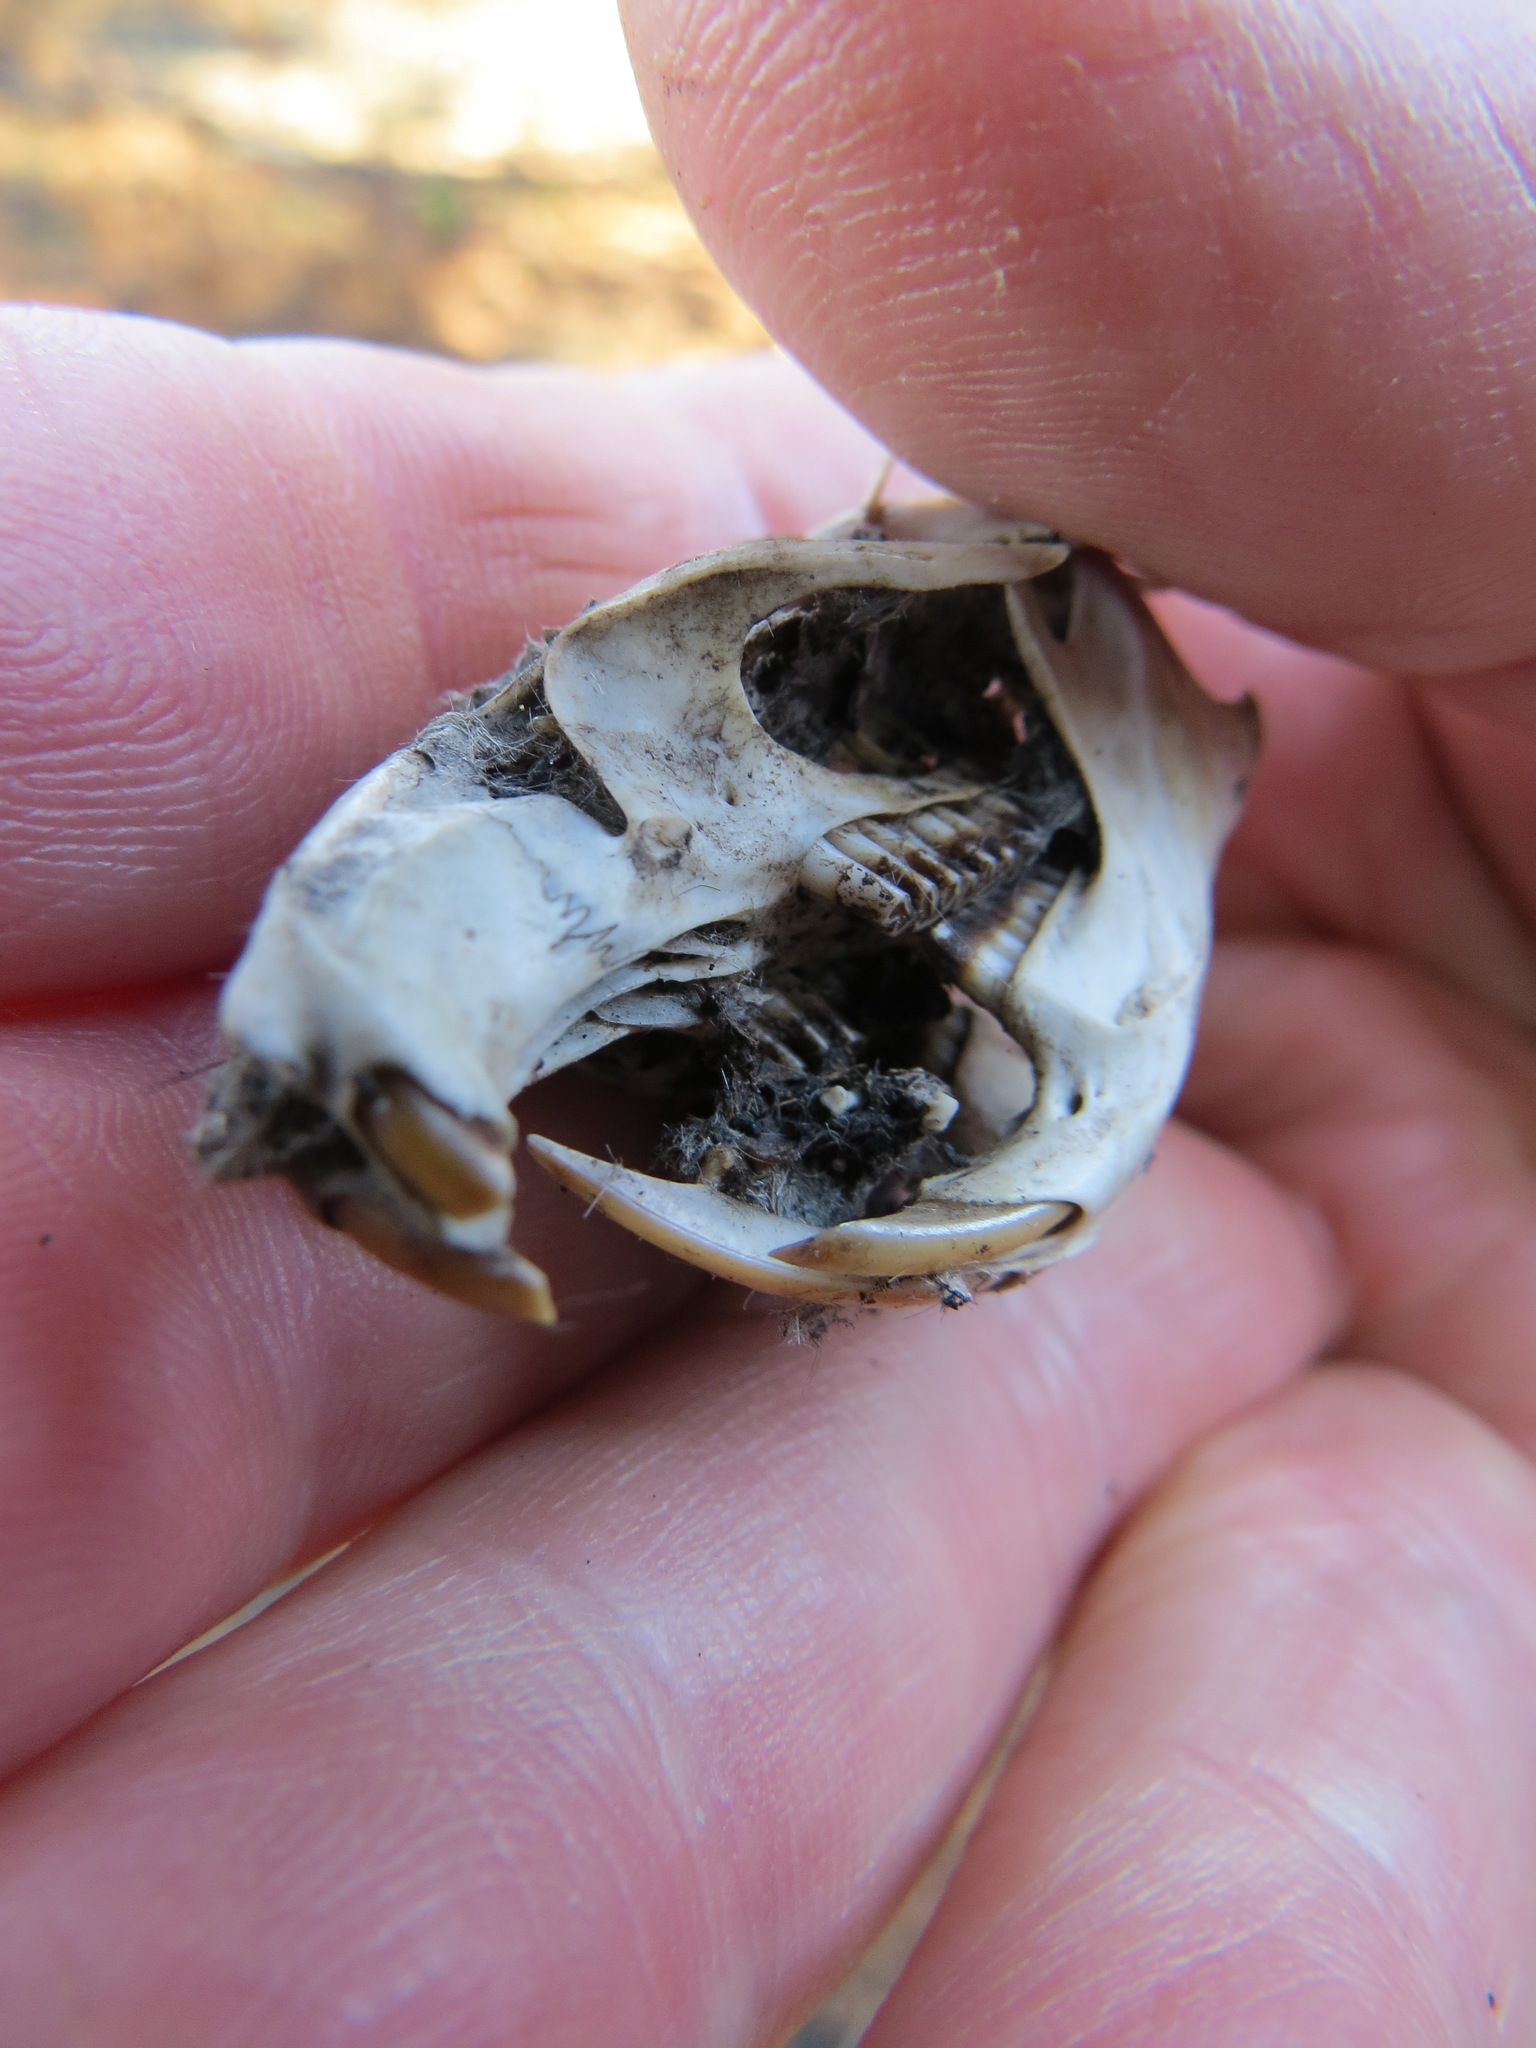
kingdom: Animalia
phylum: Chordata
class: Mammalia
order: Rodentia
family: Cricetidae
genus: Neotoma
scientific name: Neotoma fuscipes
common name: Dusky-footed woodrat
